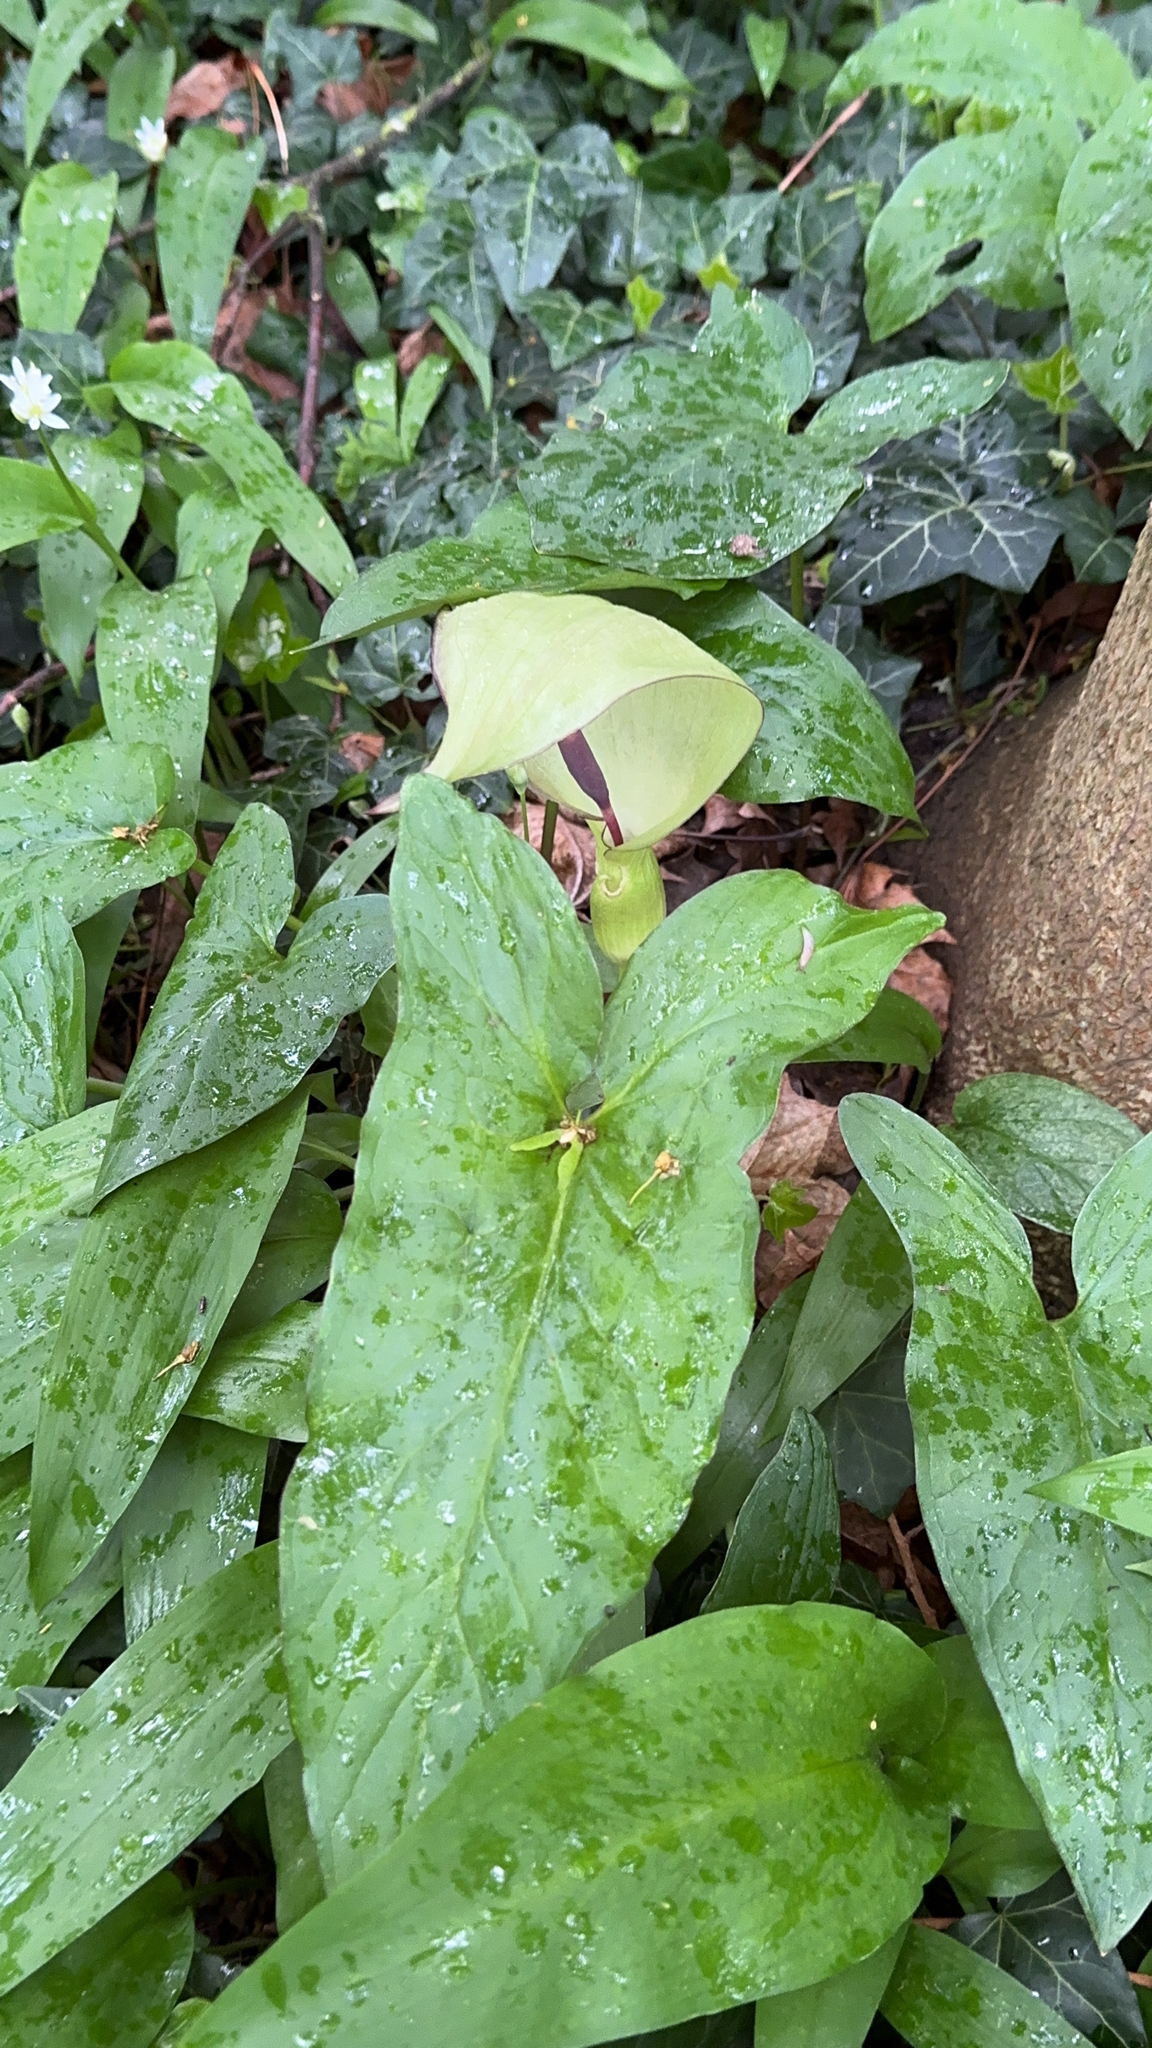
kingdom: Plantae
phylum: Tracheophyta
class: Liliopsida
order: Alismatales
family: Araceae
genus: Arum
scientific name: Arum maculatum
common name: Lords-and-ladies
